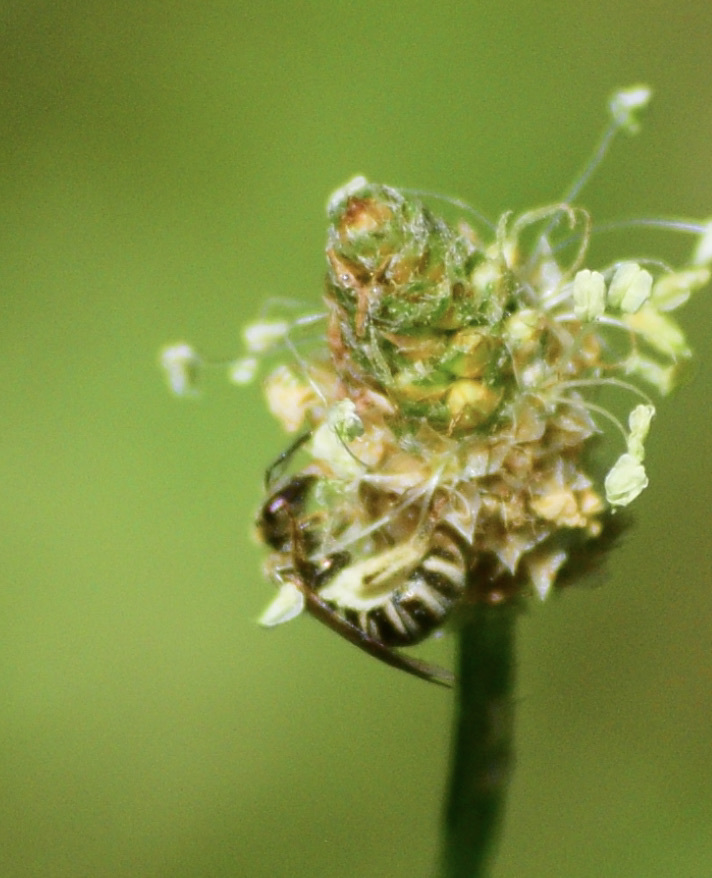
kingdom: Animalia
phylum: Arthropoda
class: Insecta
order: Hymenoptera
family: Halictidae
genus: Halictus
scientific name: Halictus confusus
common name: Southern bronze furrow bee
